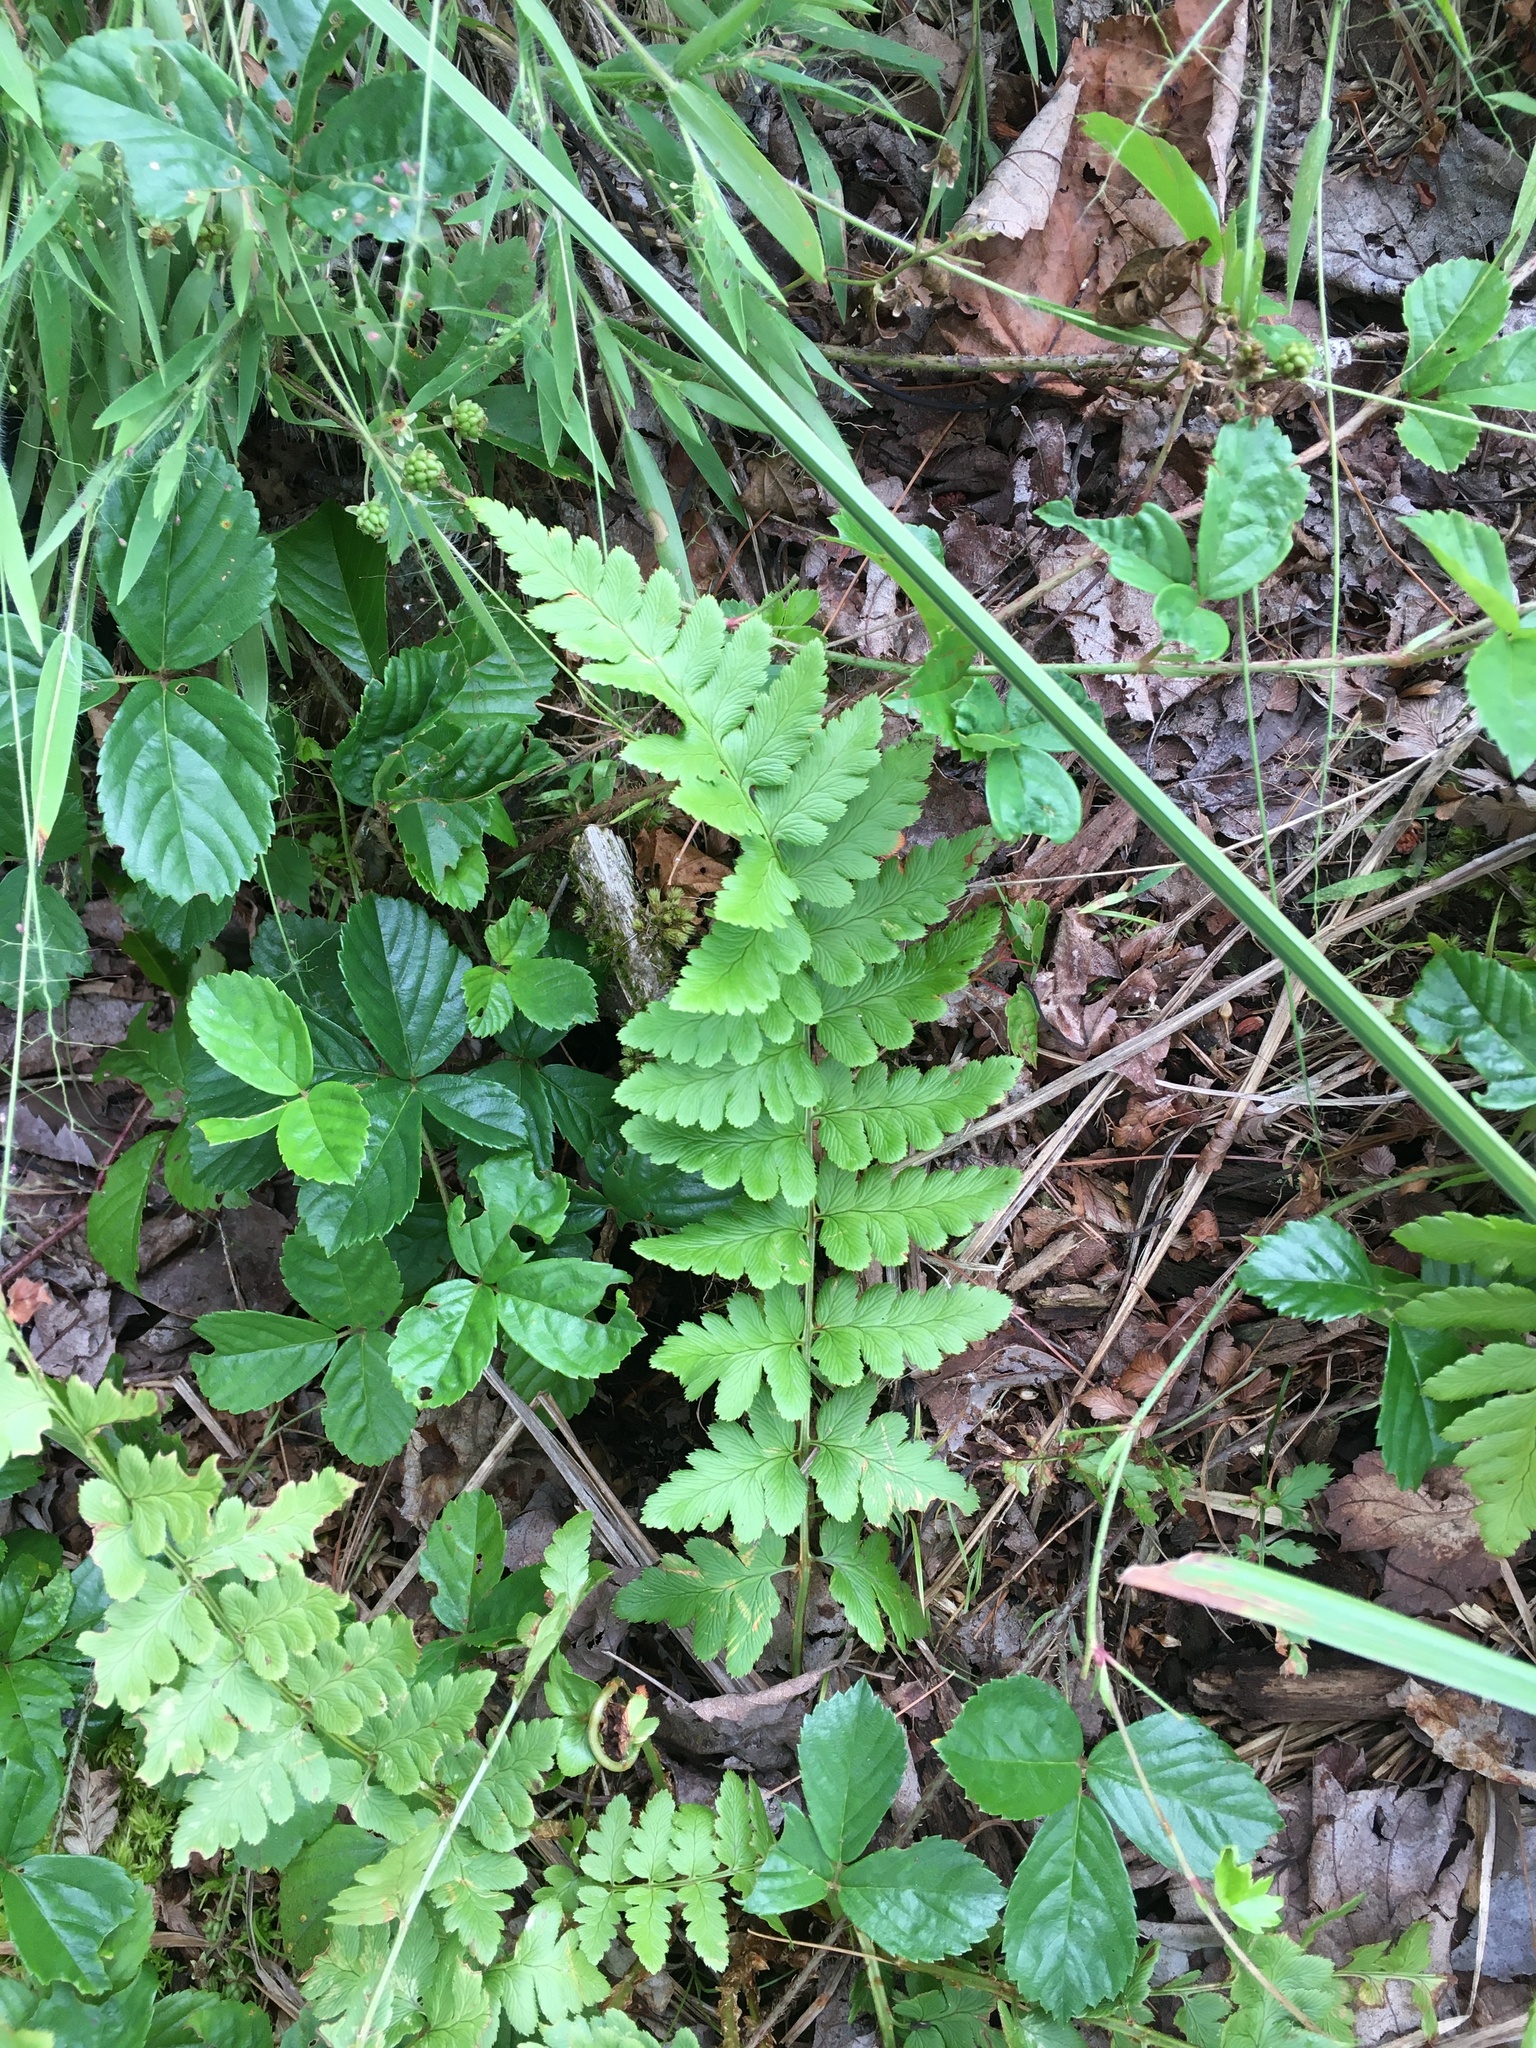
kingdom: Plantae
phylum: Tracheophyta
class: Polypodiopsida
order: Polypodiales
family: Dryopteridaceae
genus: Dryopteris
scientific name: Dryopteris cristata
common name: Crested wood fern
